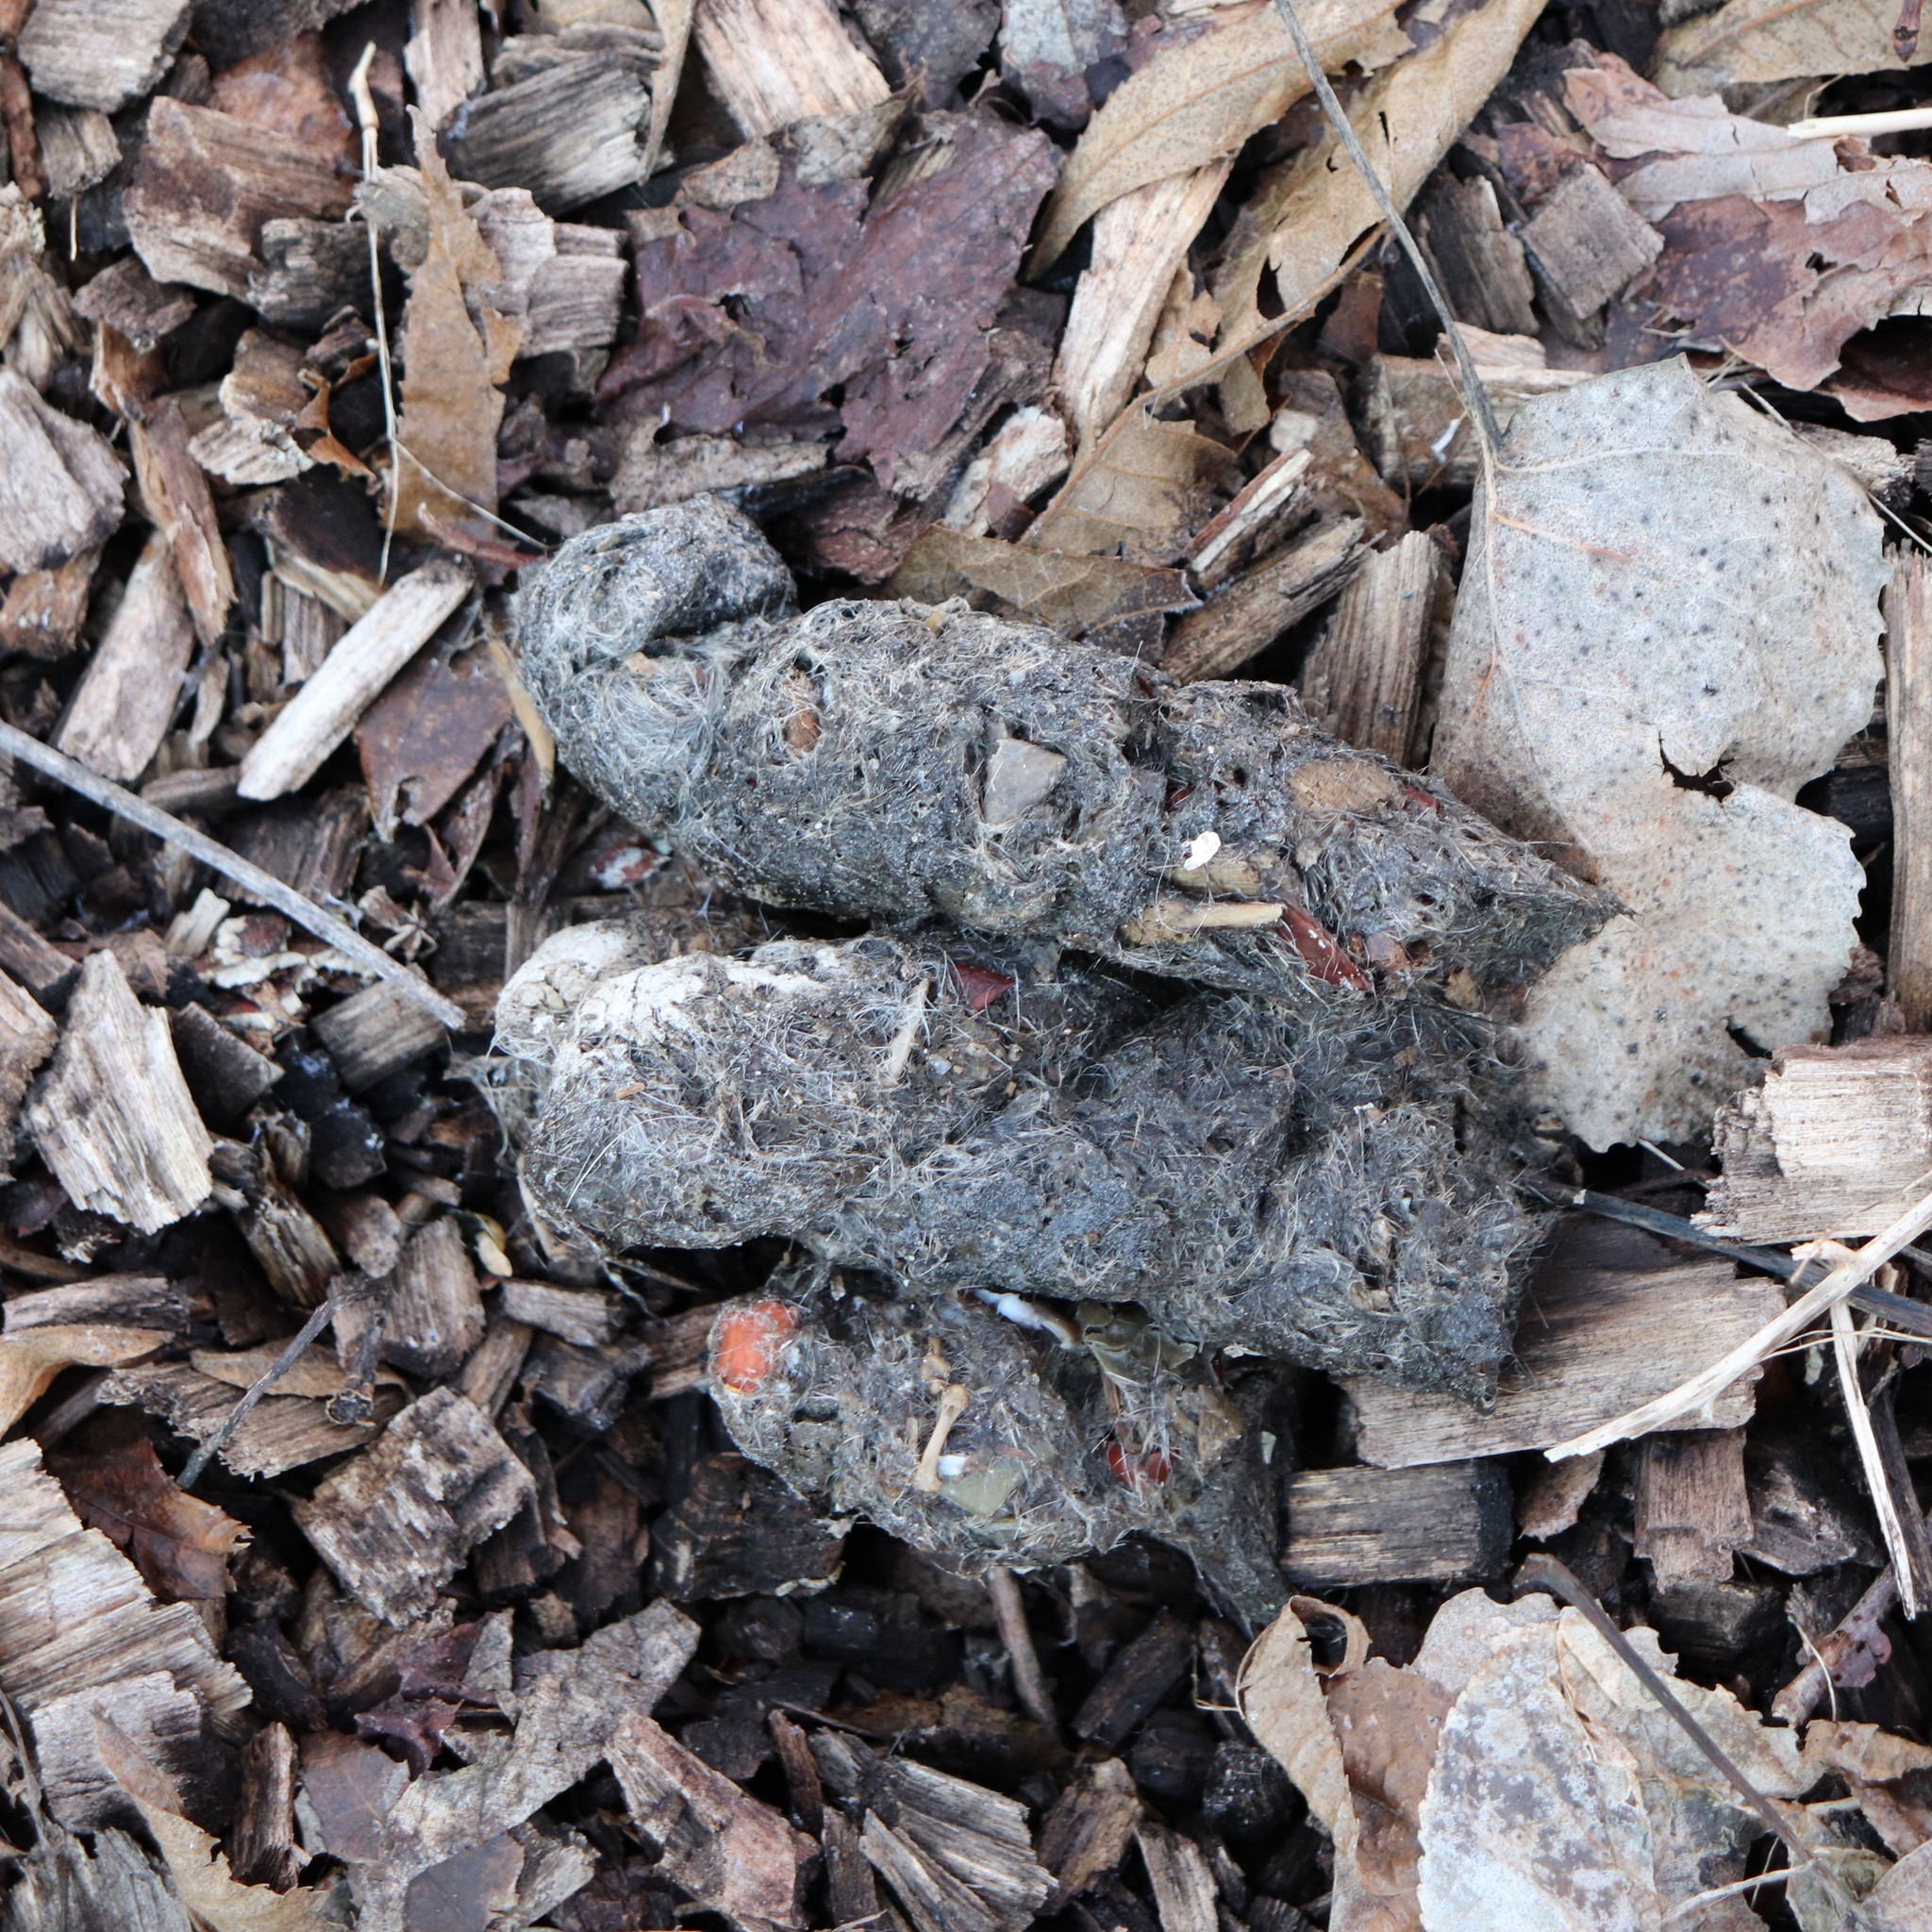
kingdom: Animalia
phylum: Chordata
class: Mammalia
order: Carnivora
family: Canidae
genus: Canis
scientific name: Canis latrans
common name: Coyote
